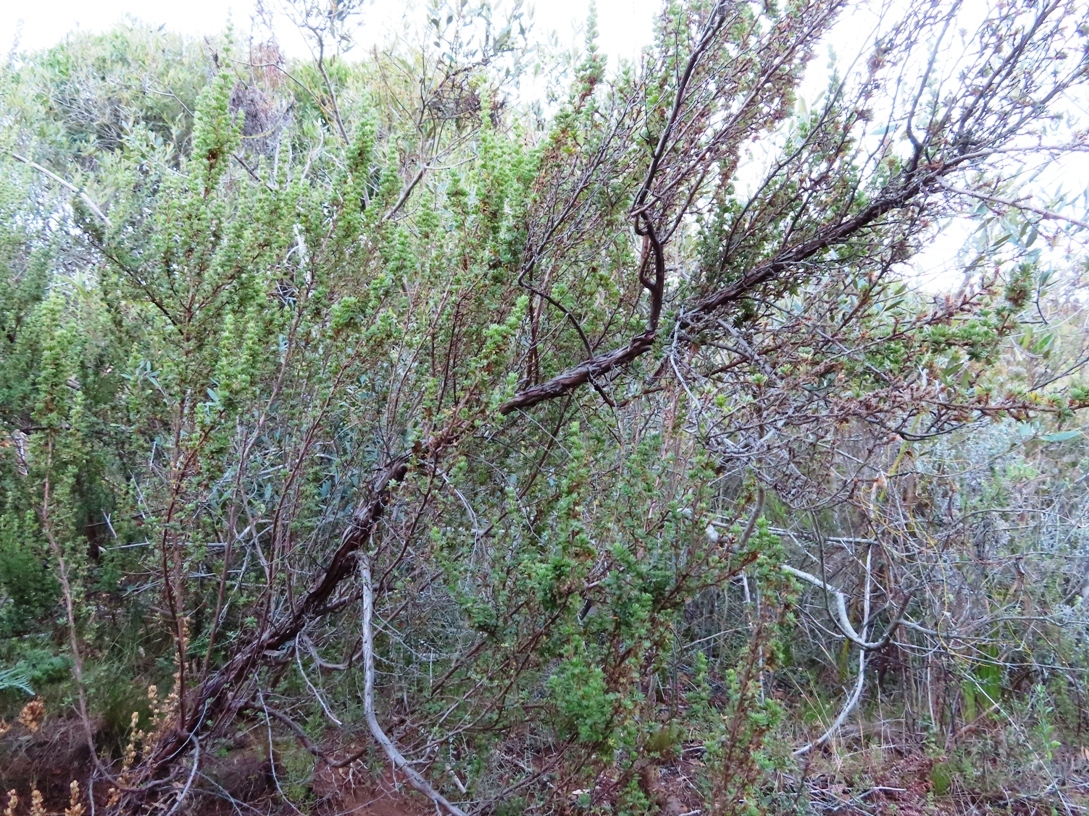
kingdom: Plantae
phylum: Tracheophyta
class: Magnoliopsida
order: Rosales
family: Rosaceae
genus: Cliffortia
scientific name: Cliffortia polygonifolia
